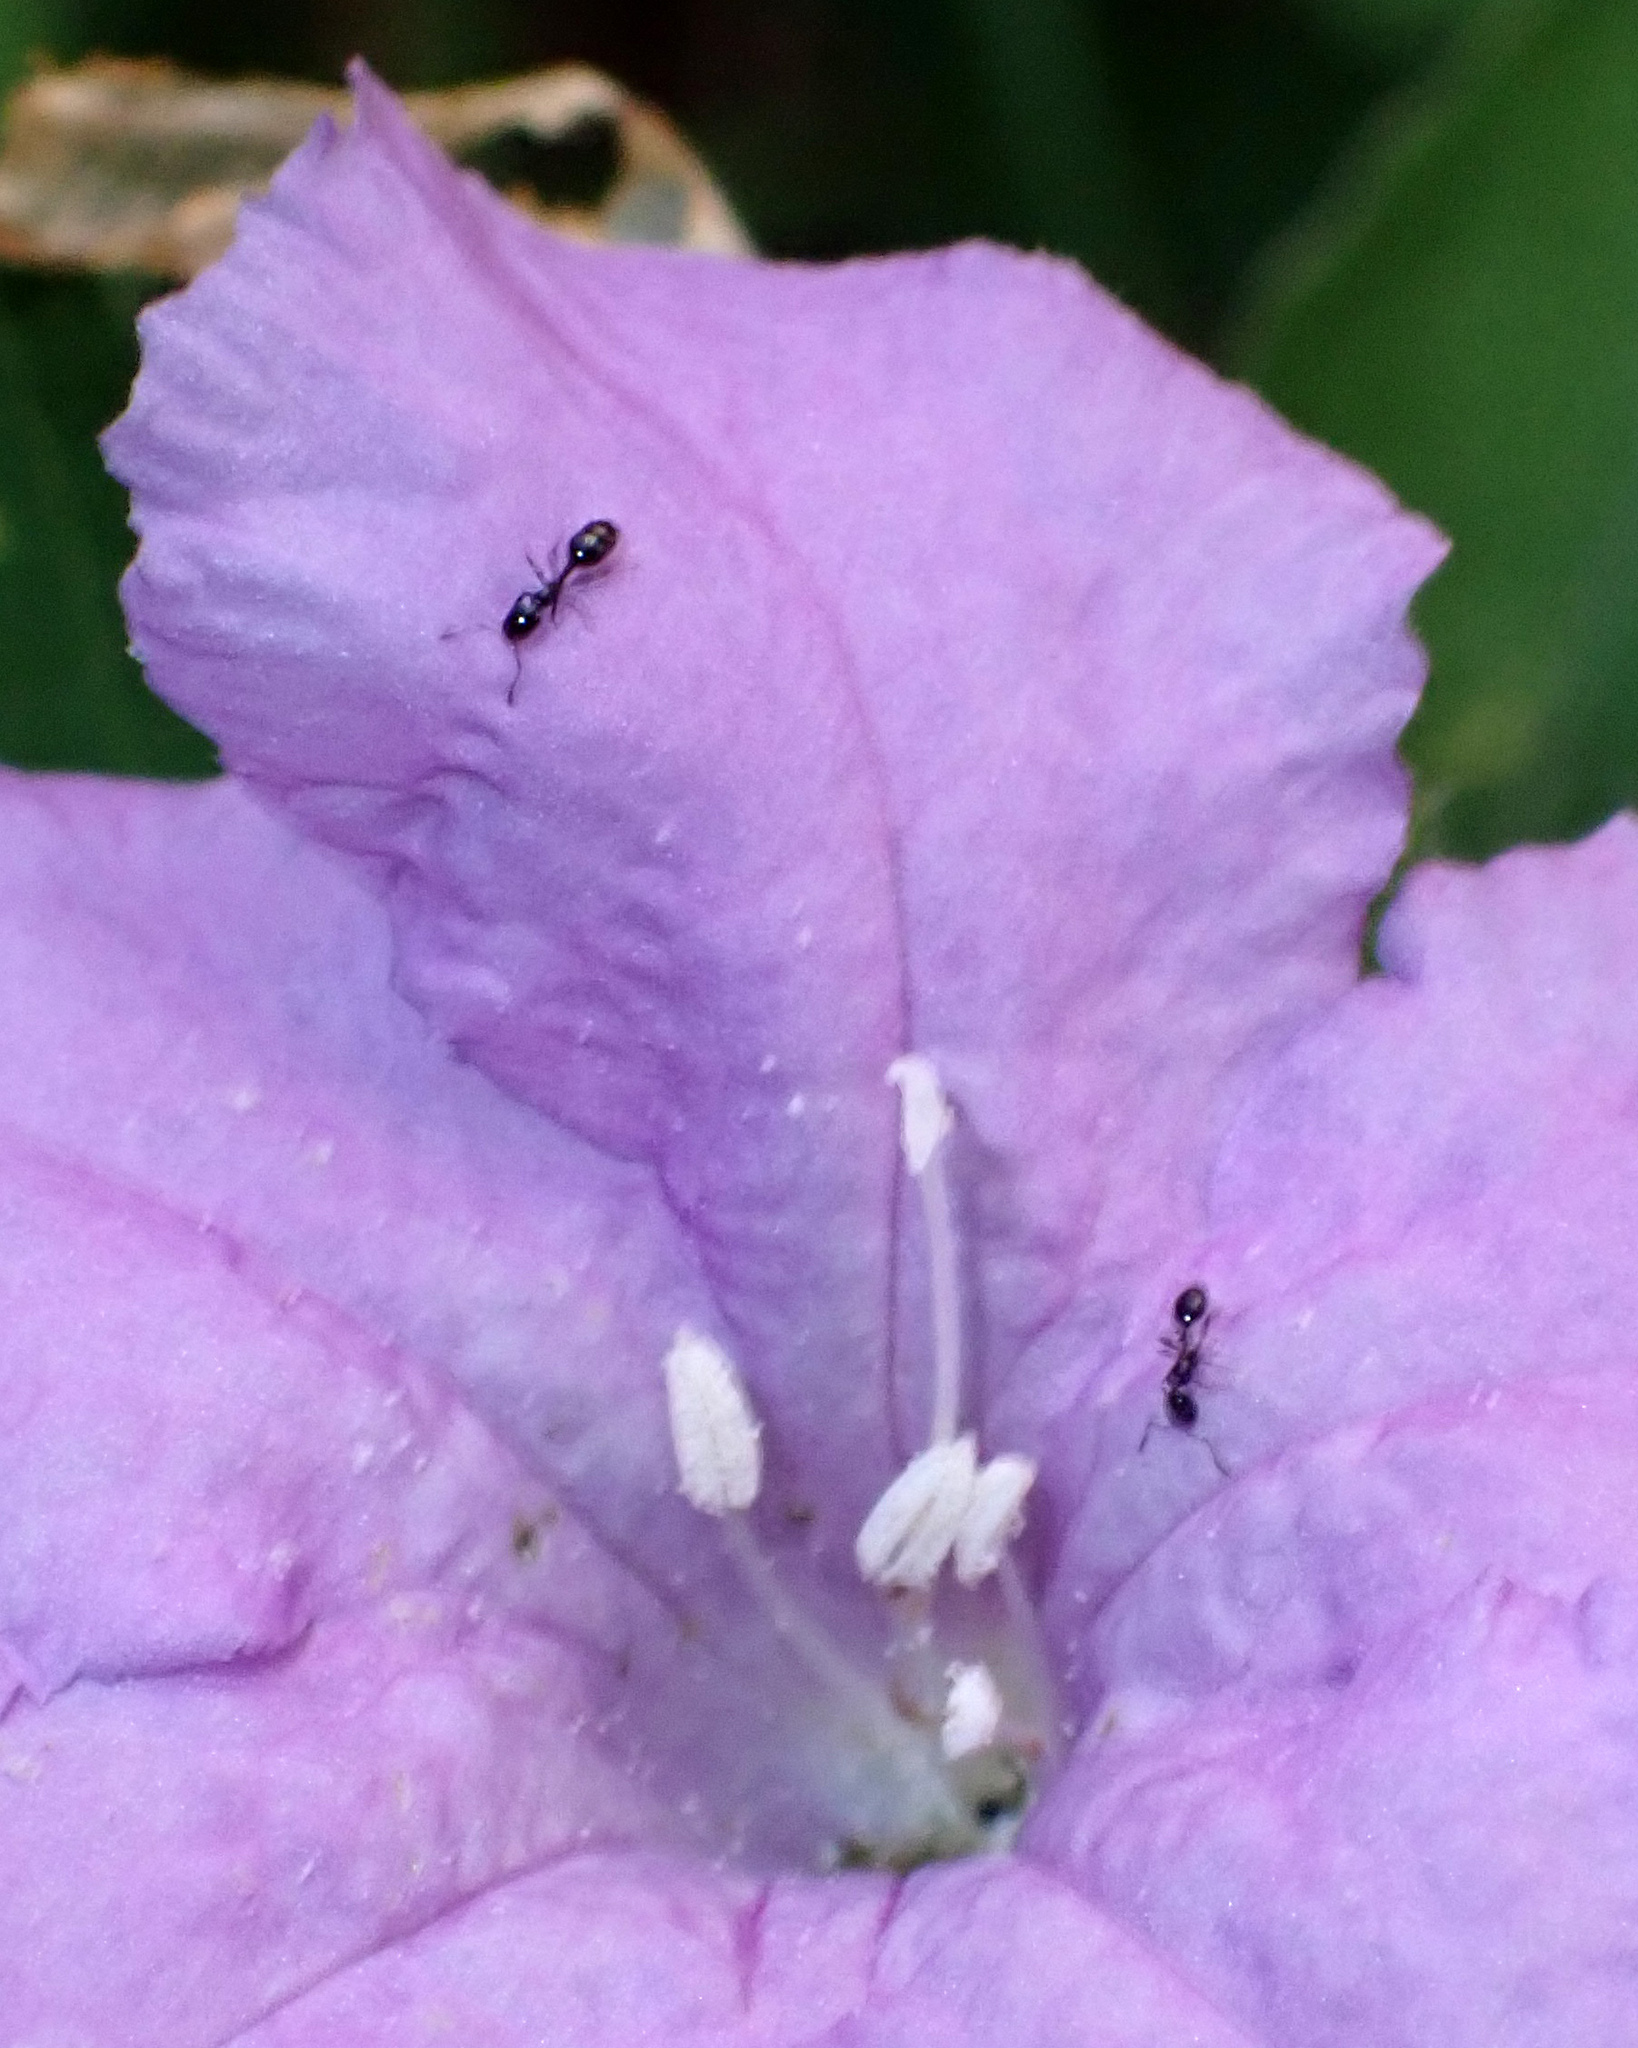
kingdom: Animalia
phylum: Arthropoda
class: Insecta
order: Hymenoptera
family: Formicidae
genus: Monomorium
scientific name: Monomorium minimum
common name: Little black ant
